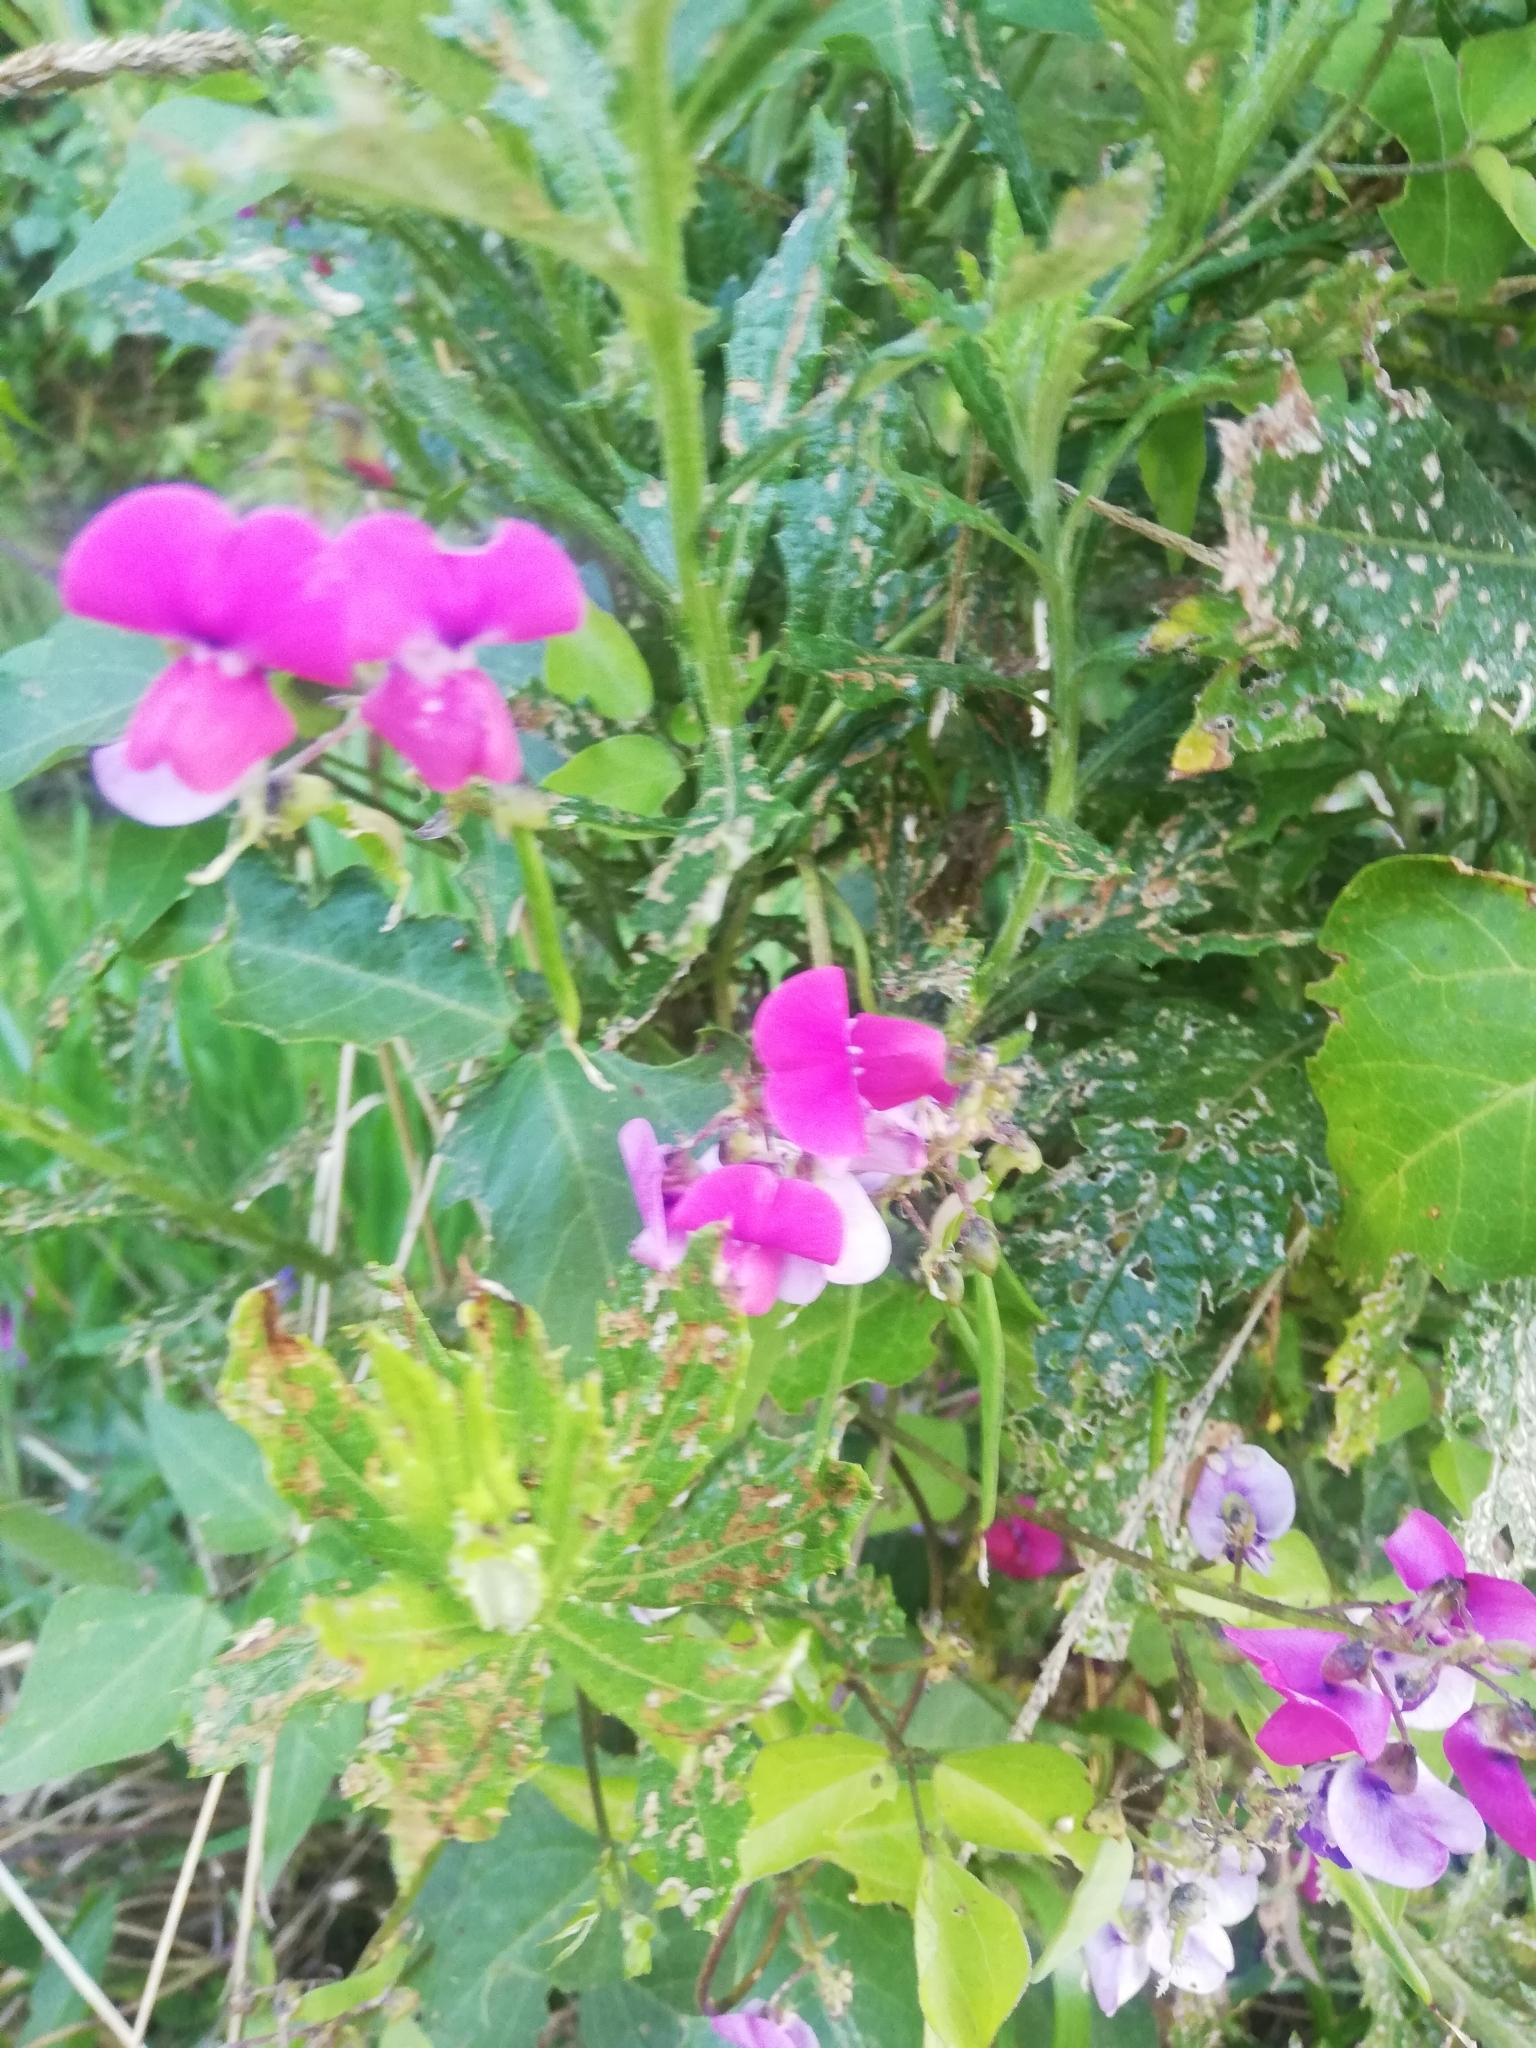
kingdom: Plantae
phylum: Tracheophyta
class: Magnoliopsida
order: Fabales
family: Fabaceae
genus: Dipogon
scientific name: Dipogon lignosus
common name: Okie bean
